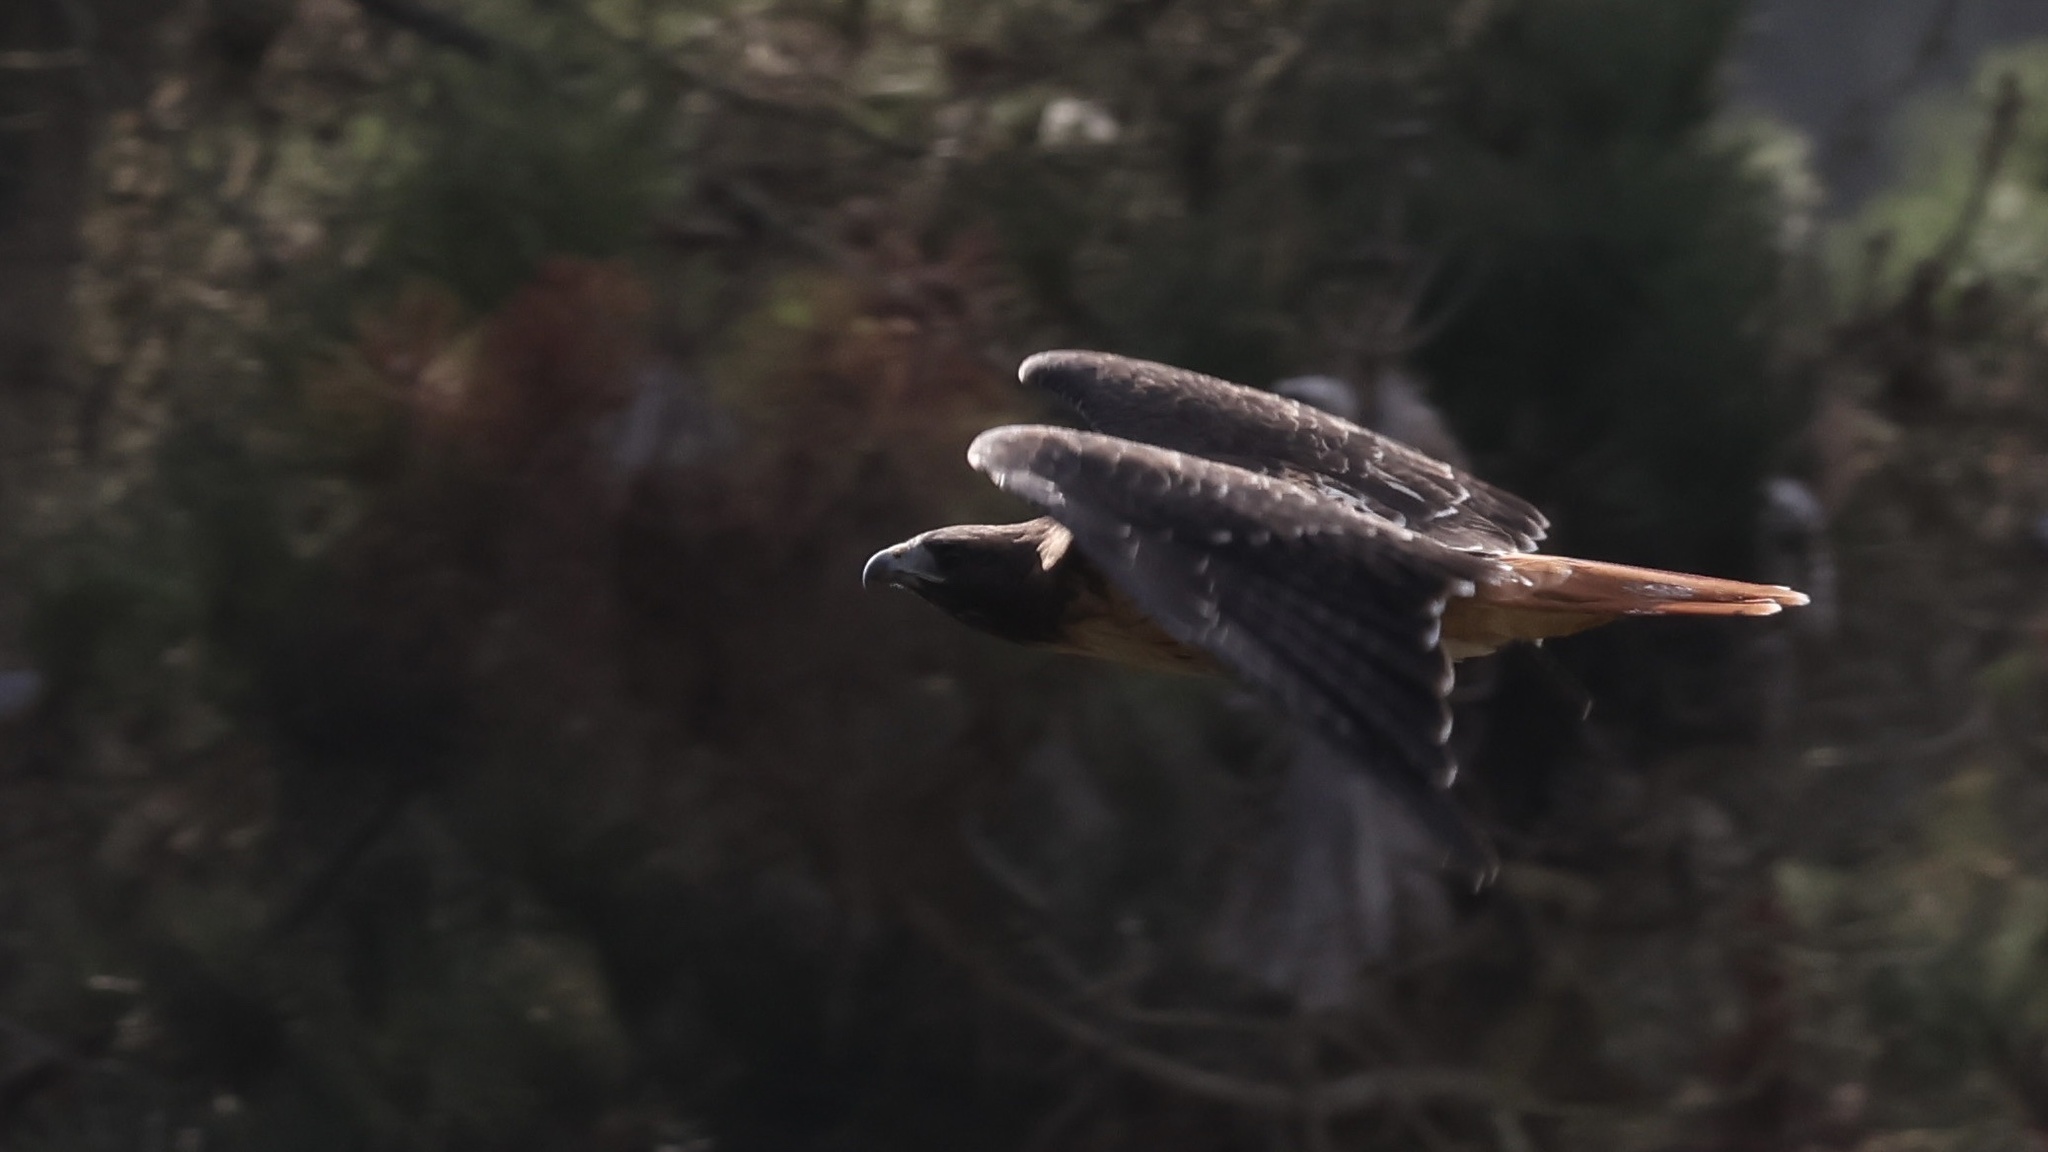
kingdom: Animalia
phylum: Chordata
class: Aves
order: Accipitriformes
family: Accipitridae
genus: Buteo
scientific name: Buteo jamaicensis
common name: Red-tailed hawk
